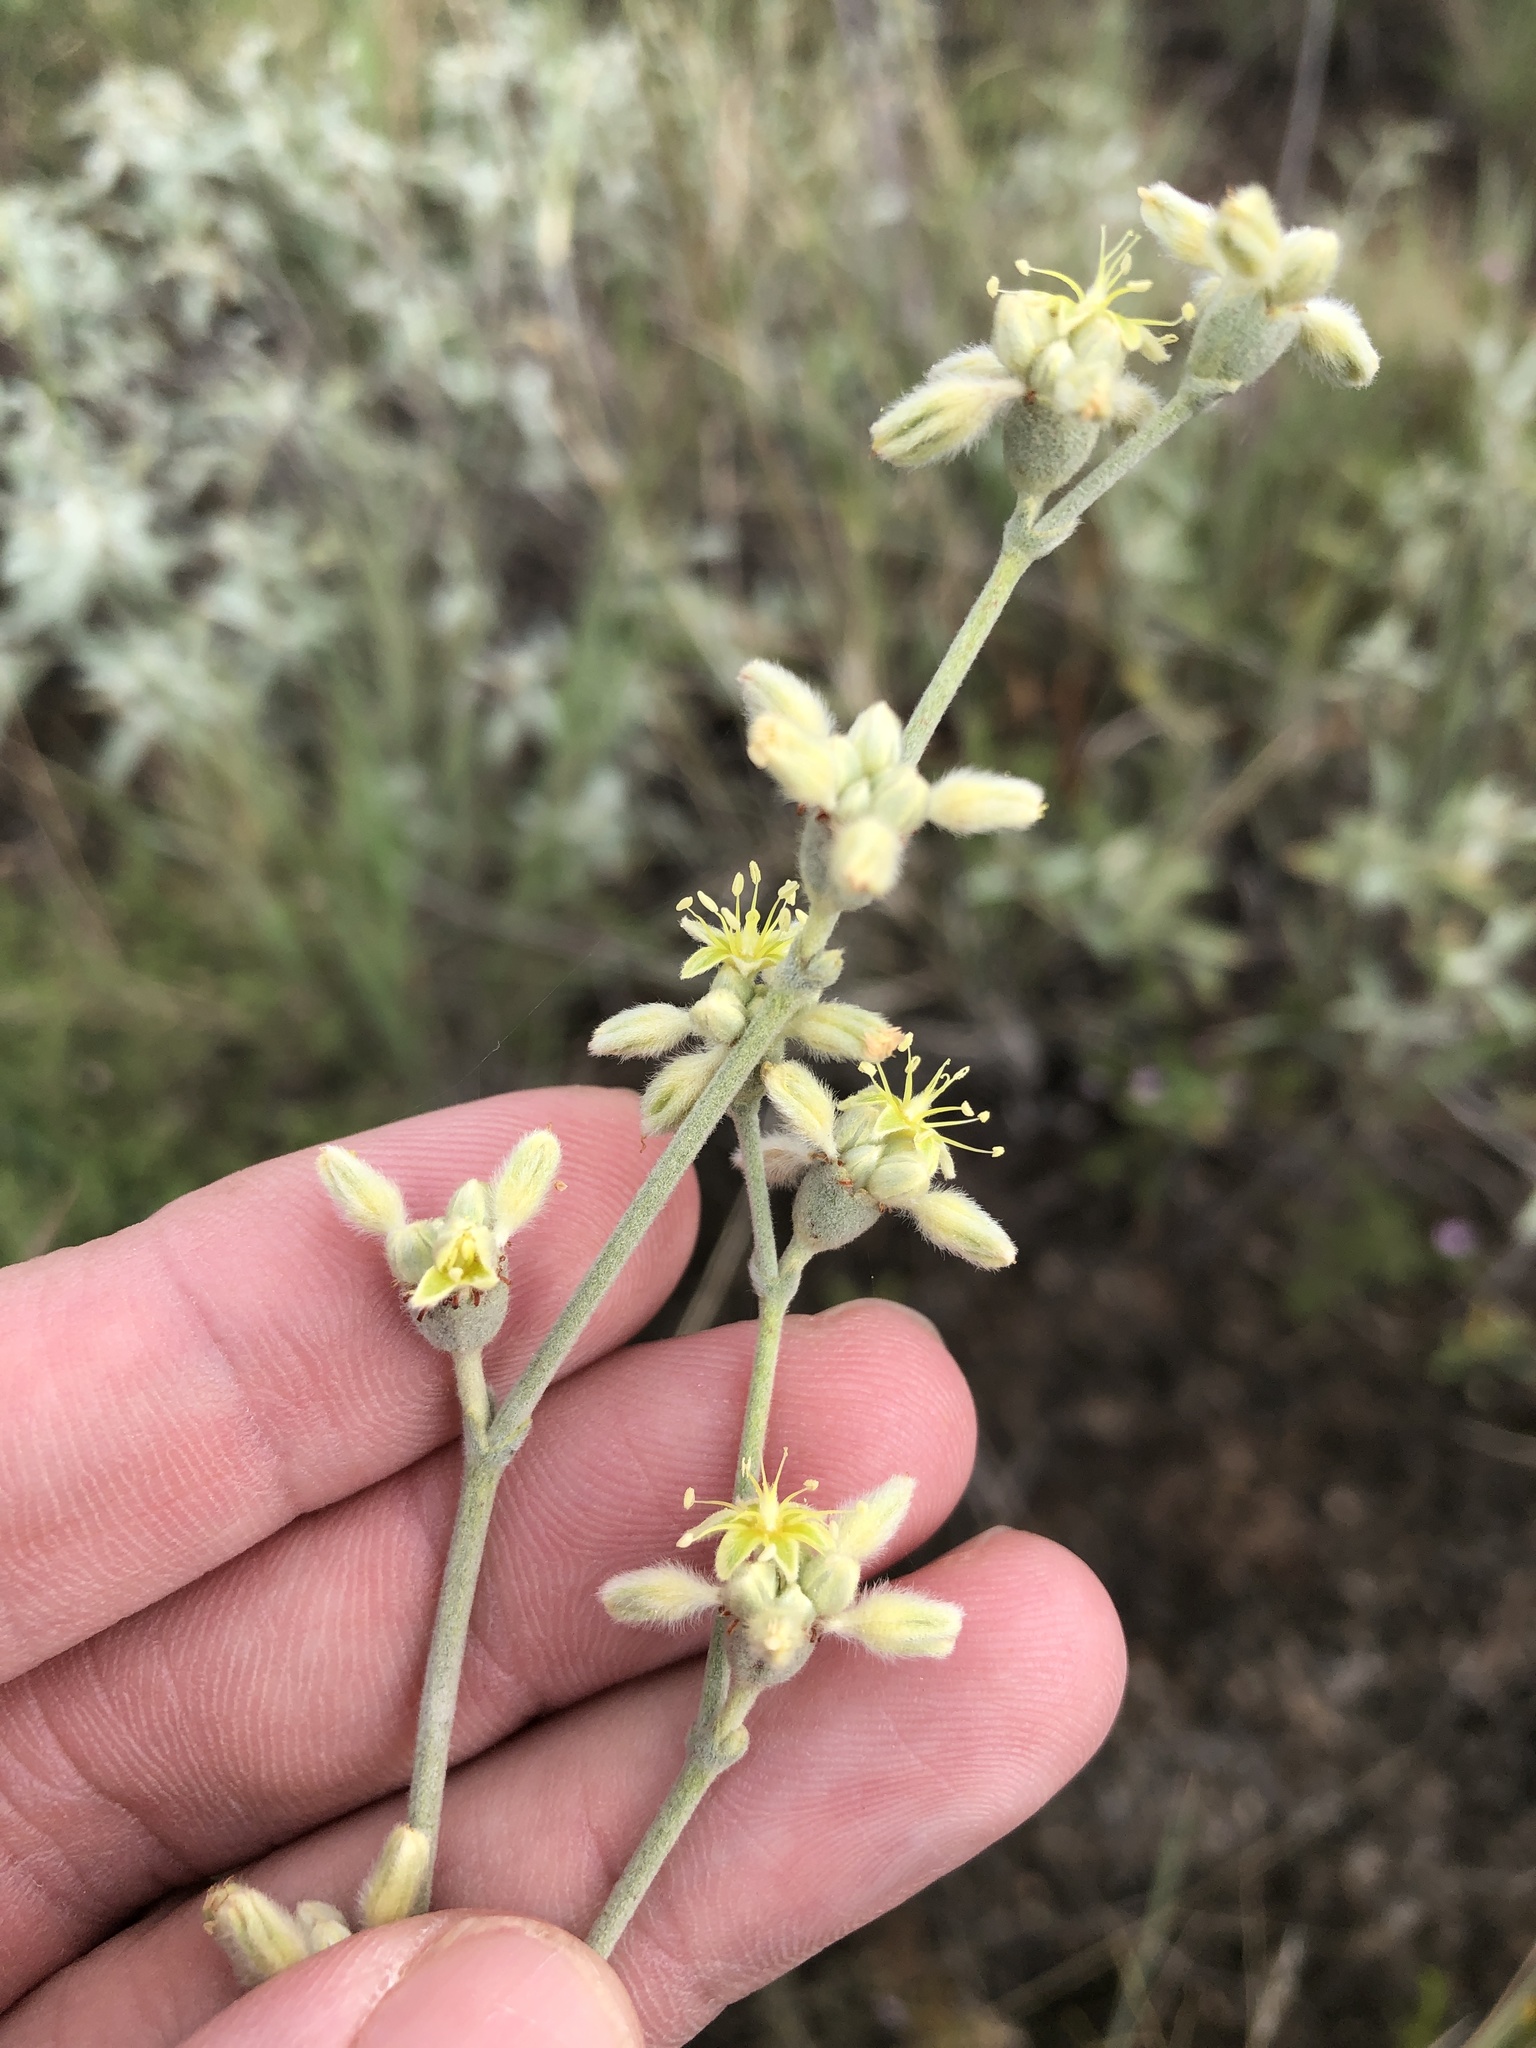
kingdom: Plantae
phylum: Tracheophyta
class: Magnoliopsida
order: Caryophyllales
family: Polygonaceae
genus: Eriogonum
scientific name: Eriogonum longifolium
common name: Longleaf wild buckwheat
